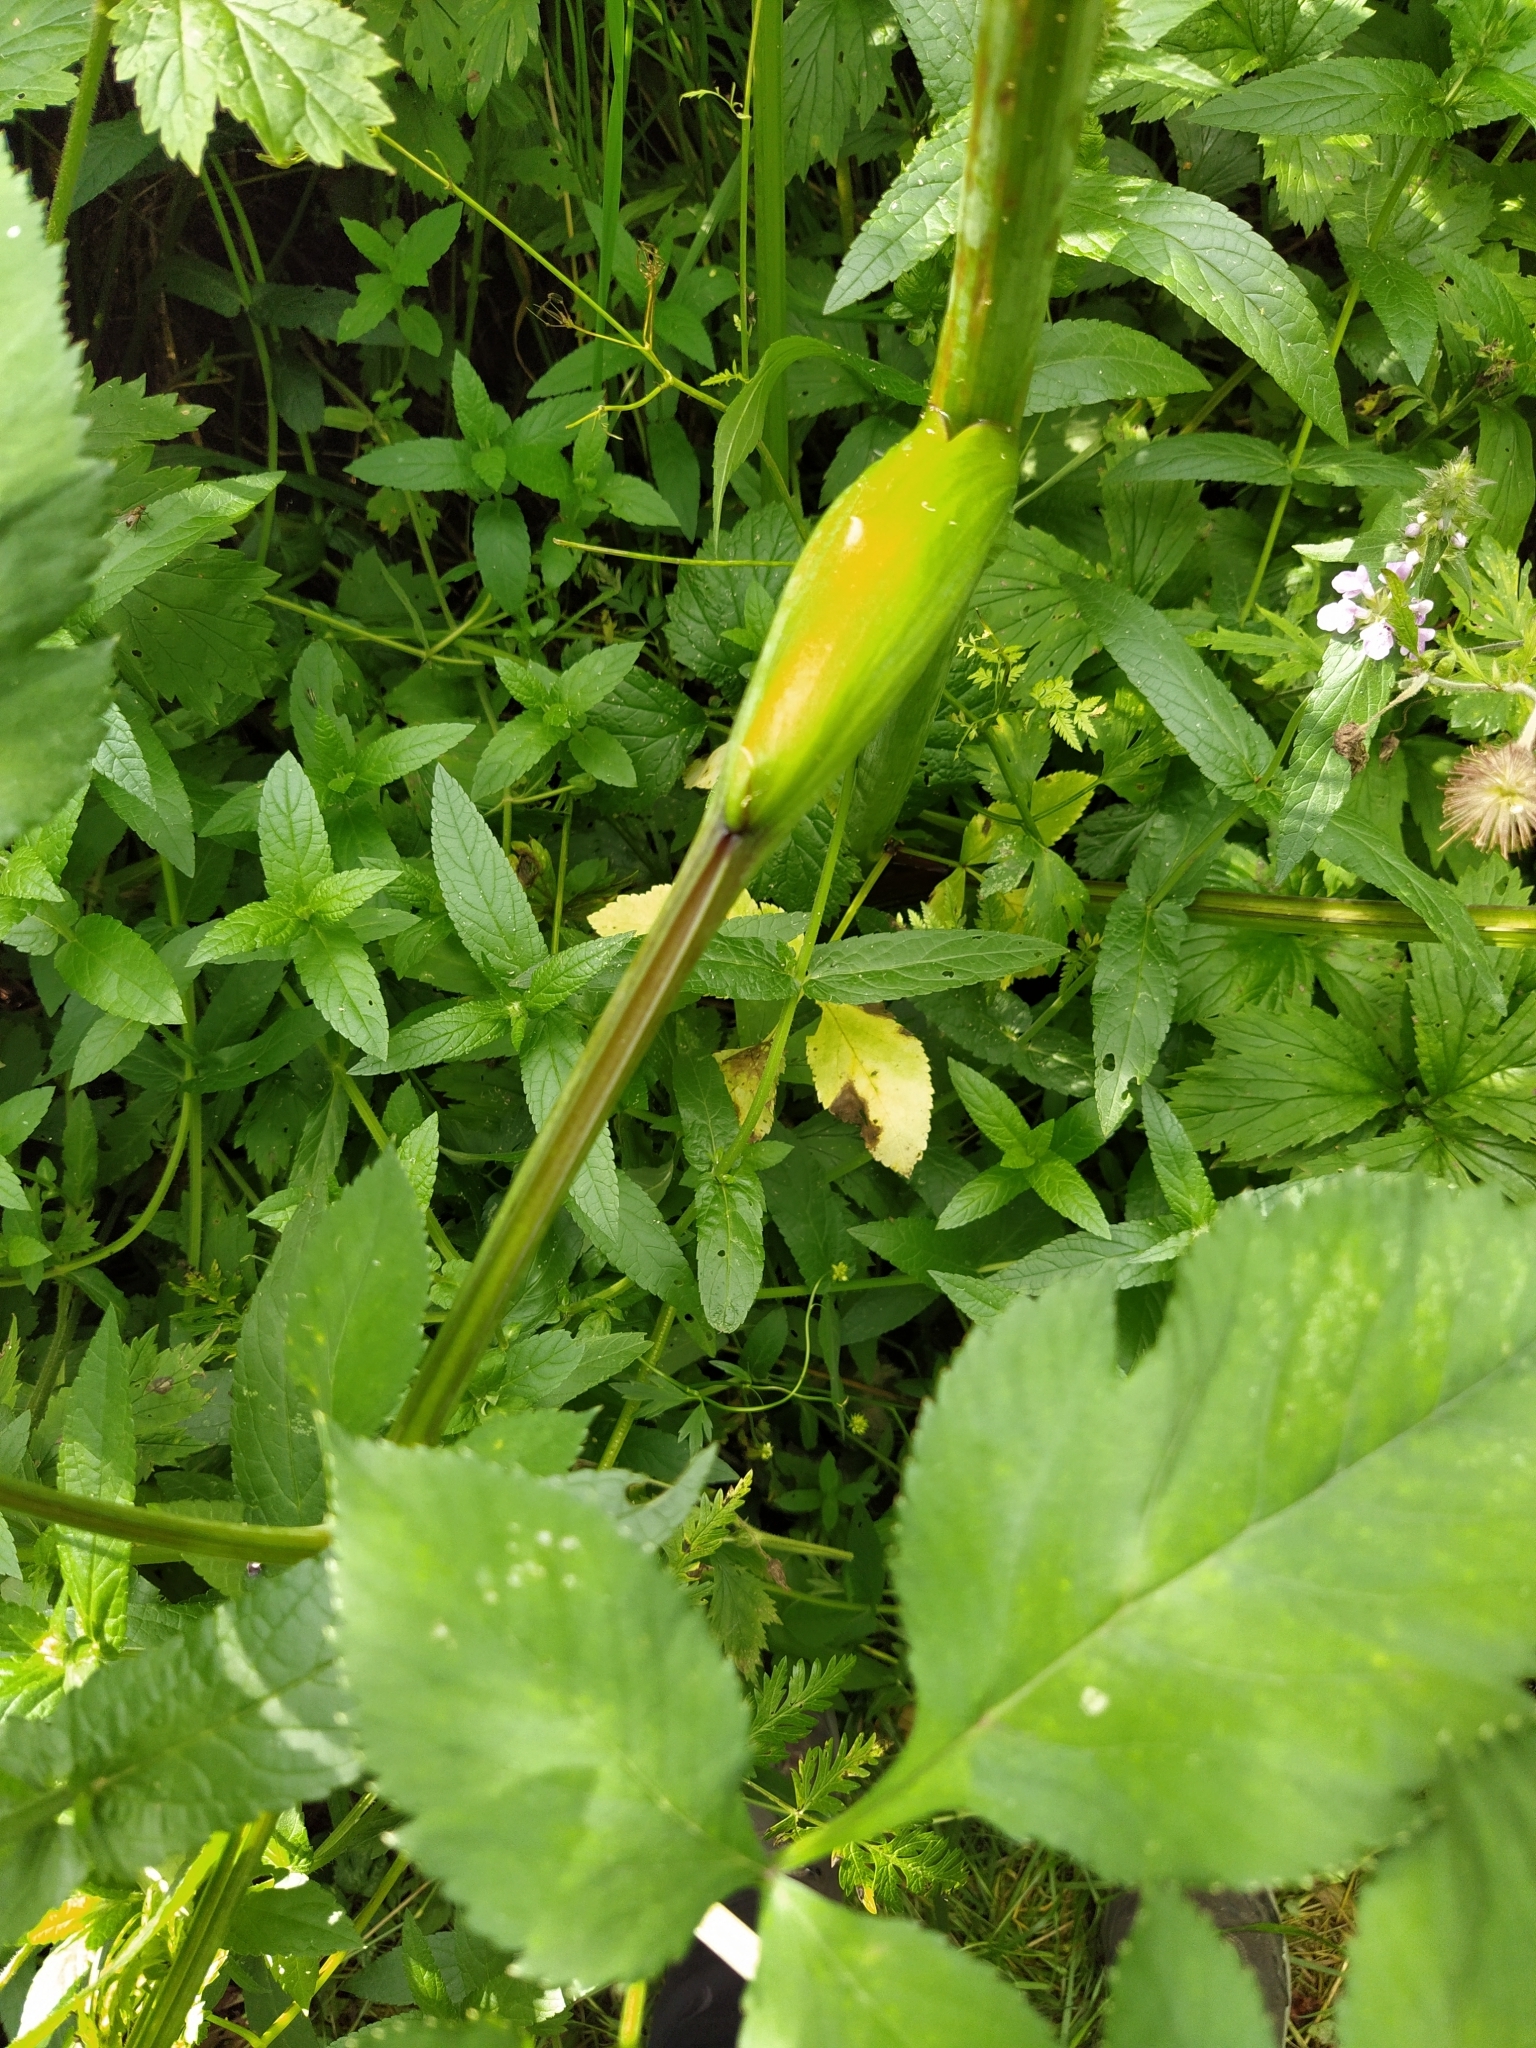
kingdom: Plantae
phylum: Tracheophyta
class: Magnoliopsida
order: Apiales
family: Apiaceae
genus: Angelica
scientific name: Angelica sylvestris
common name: Wild angelica
